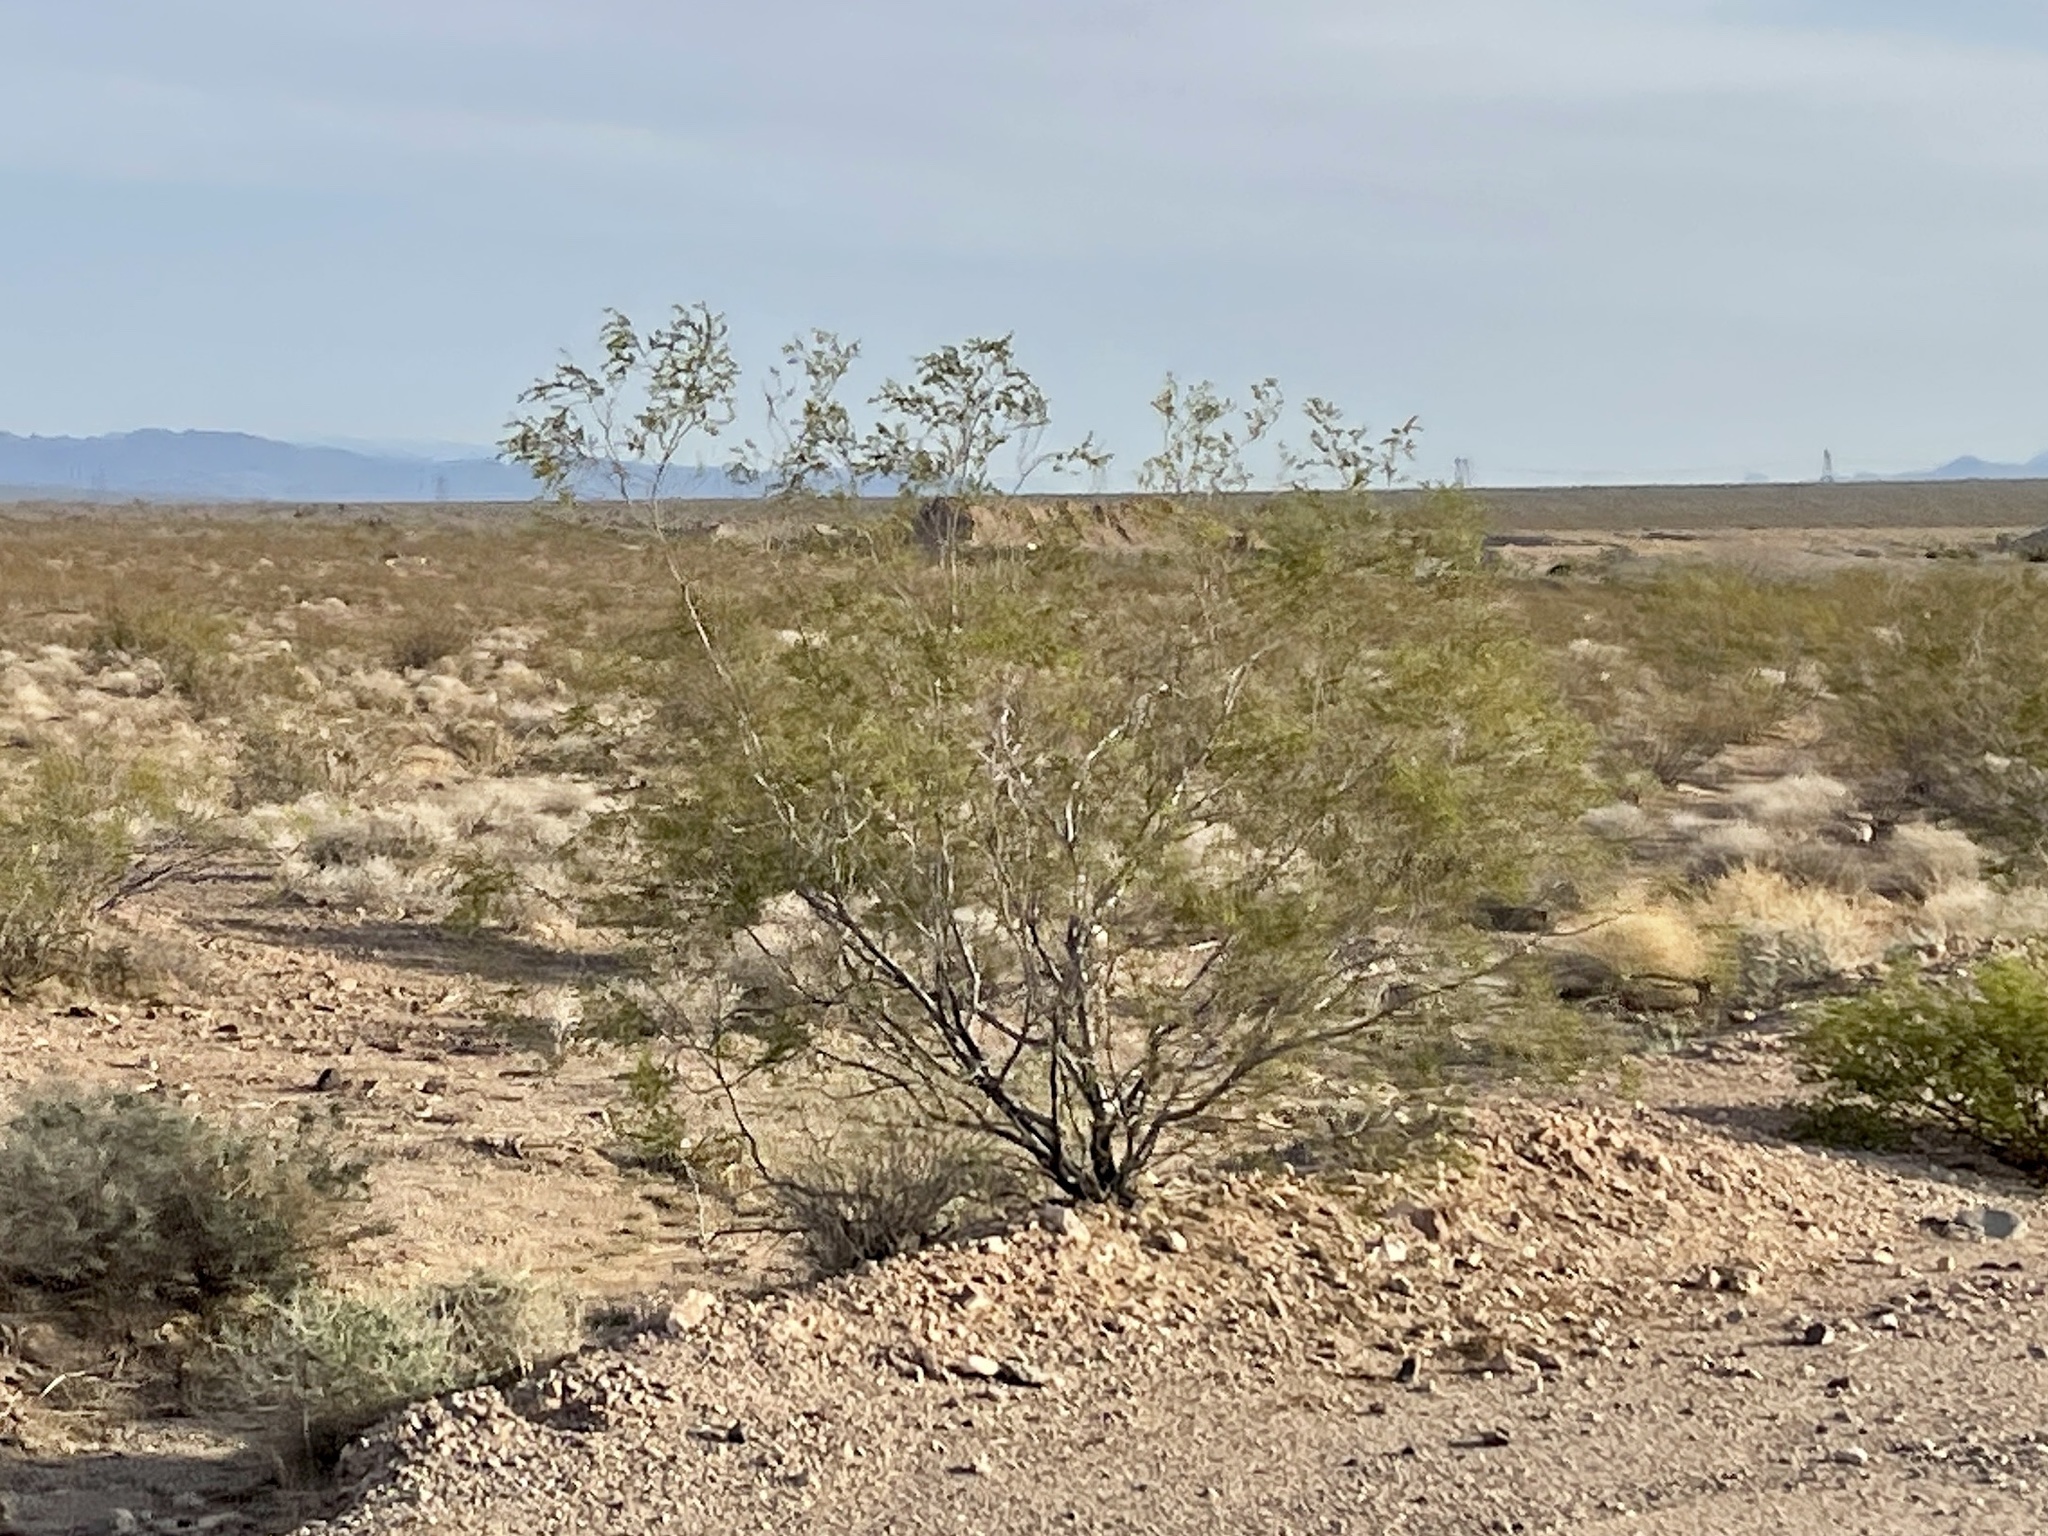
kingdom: Plantae
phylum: Tracheophyta
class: Magnoliopsida
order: Zygophyllales
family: Zygophyllaceae
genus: Larrea
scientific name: Larrea tridentata
